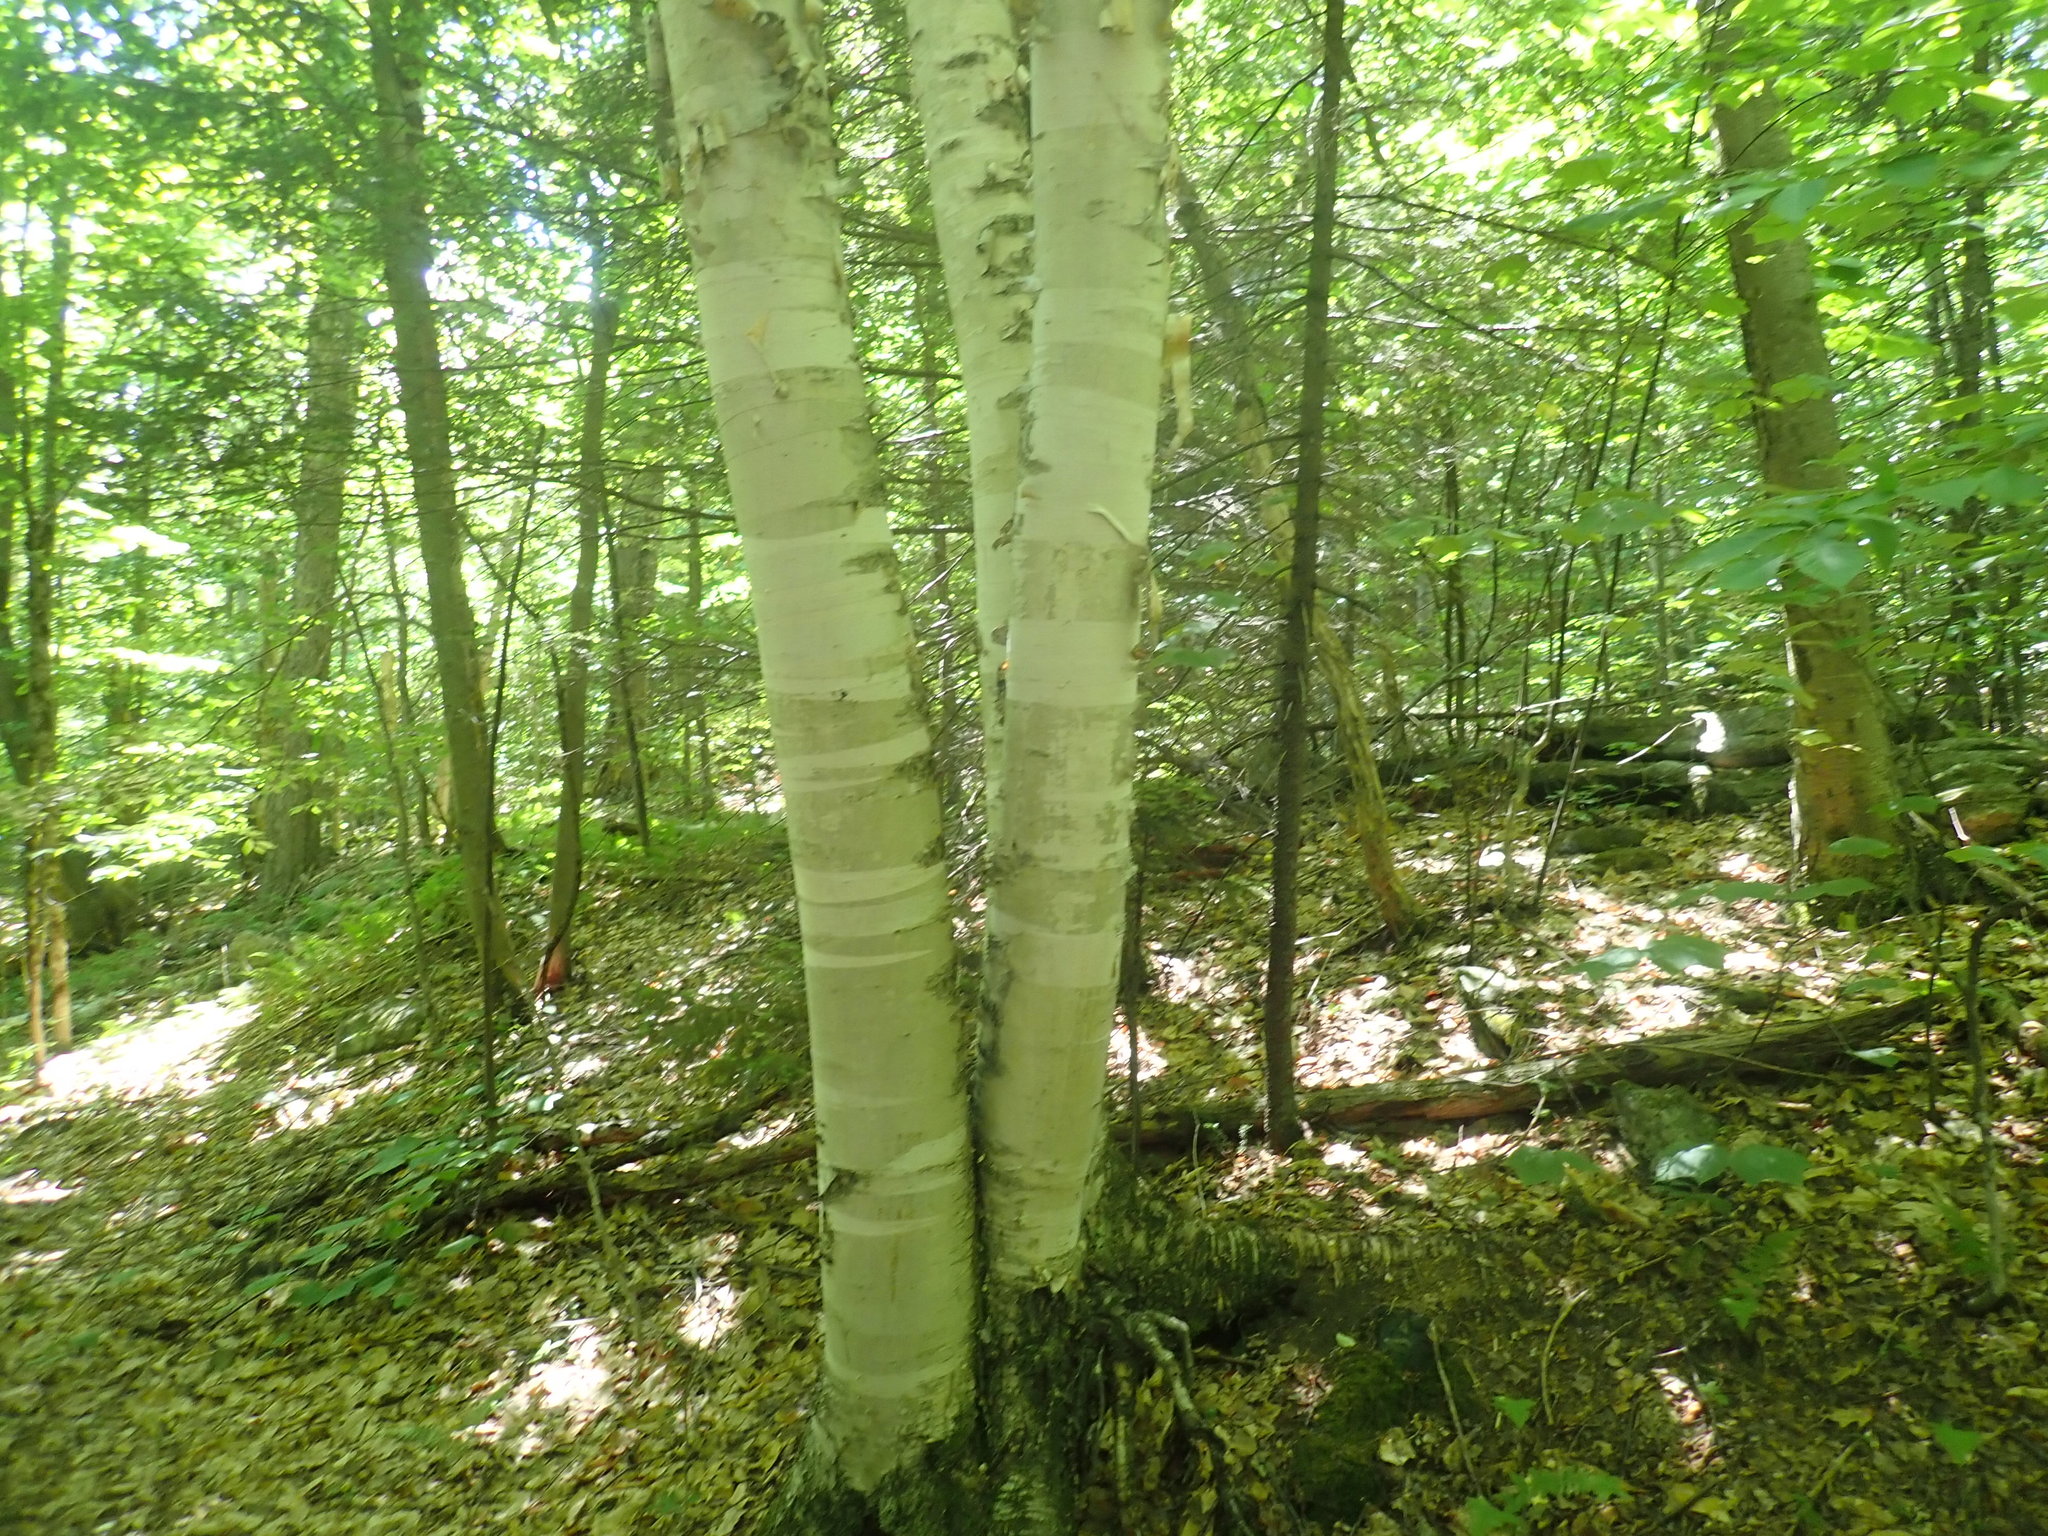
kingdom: Plantae
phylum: Tracheophyta
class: Magnoliopsida
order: Fagales
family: Betulaceae
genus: Betula
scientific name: Betula papyrifera
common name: Paper birch
